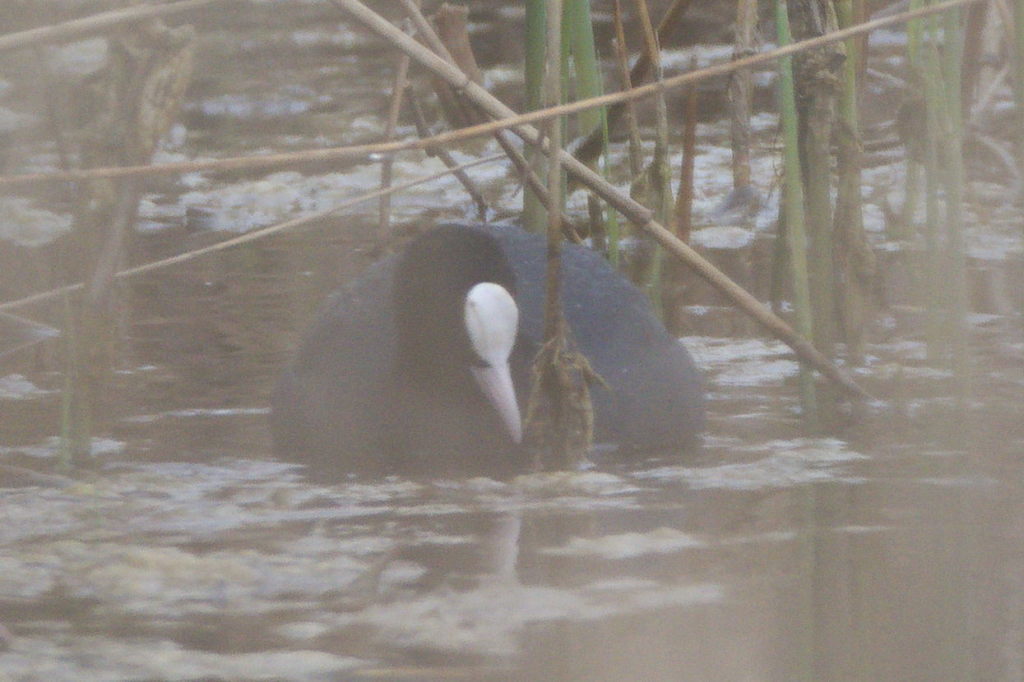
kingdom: Animalia
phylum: Chordata
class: Aves
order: Gruiformes
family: Rallidae
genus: Fulica
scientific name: Fulica atra
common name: Eurasian coot
